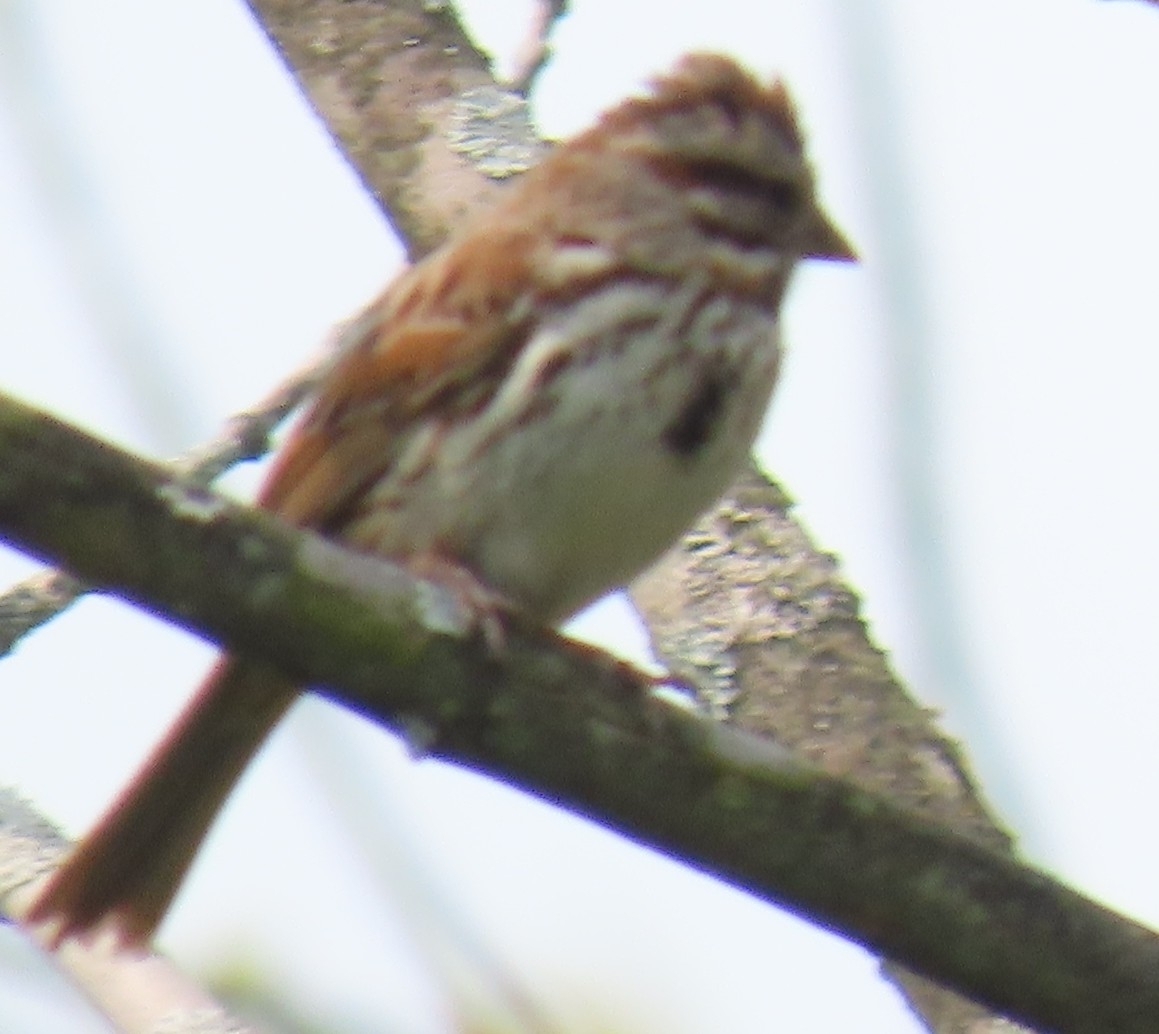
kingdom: Animalia
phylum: Chordata
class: Aves
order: Passeriformes
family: Passerellidae
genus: Melospiza
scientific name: Melospiza melodia
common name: Song sparrow
